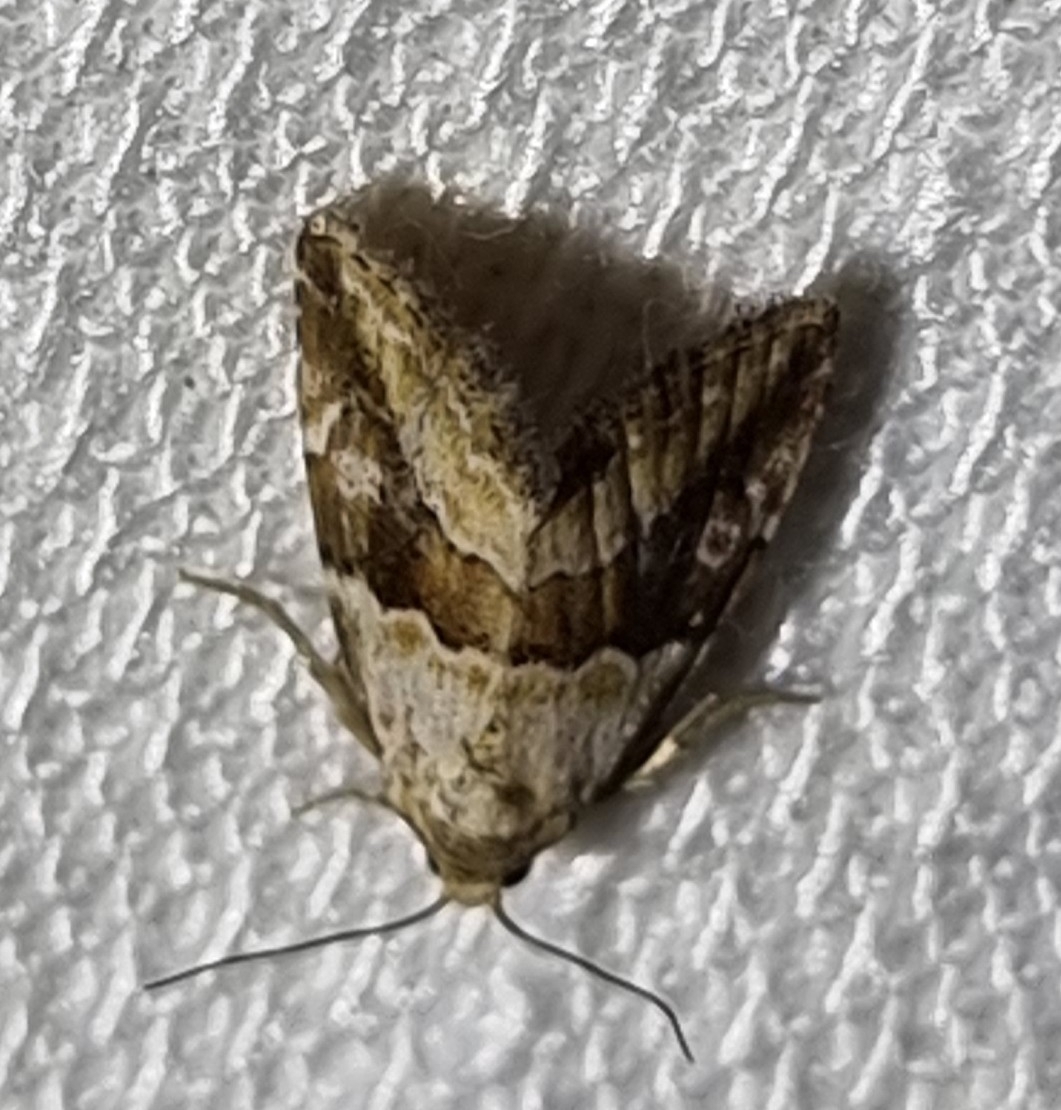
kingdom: Animalia
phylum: Arthropoda
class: Insecta
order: Lepidoptera
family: Noctuidae
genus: Maliattha
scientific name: Maliattha amorpha
